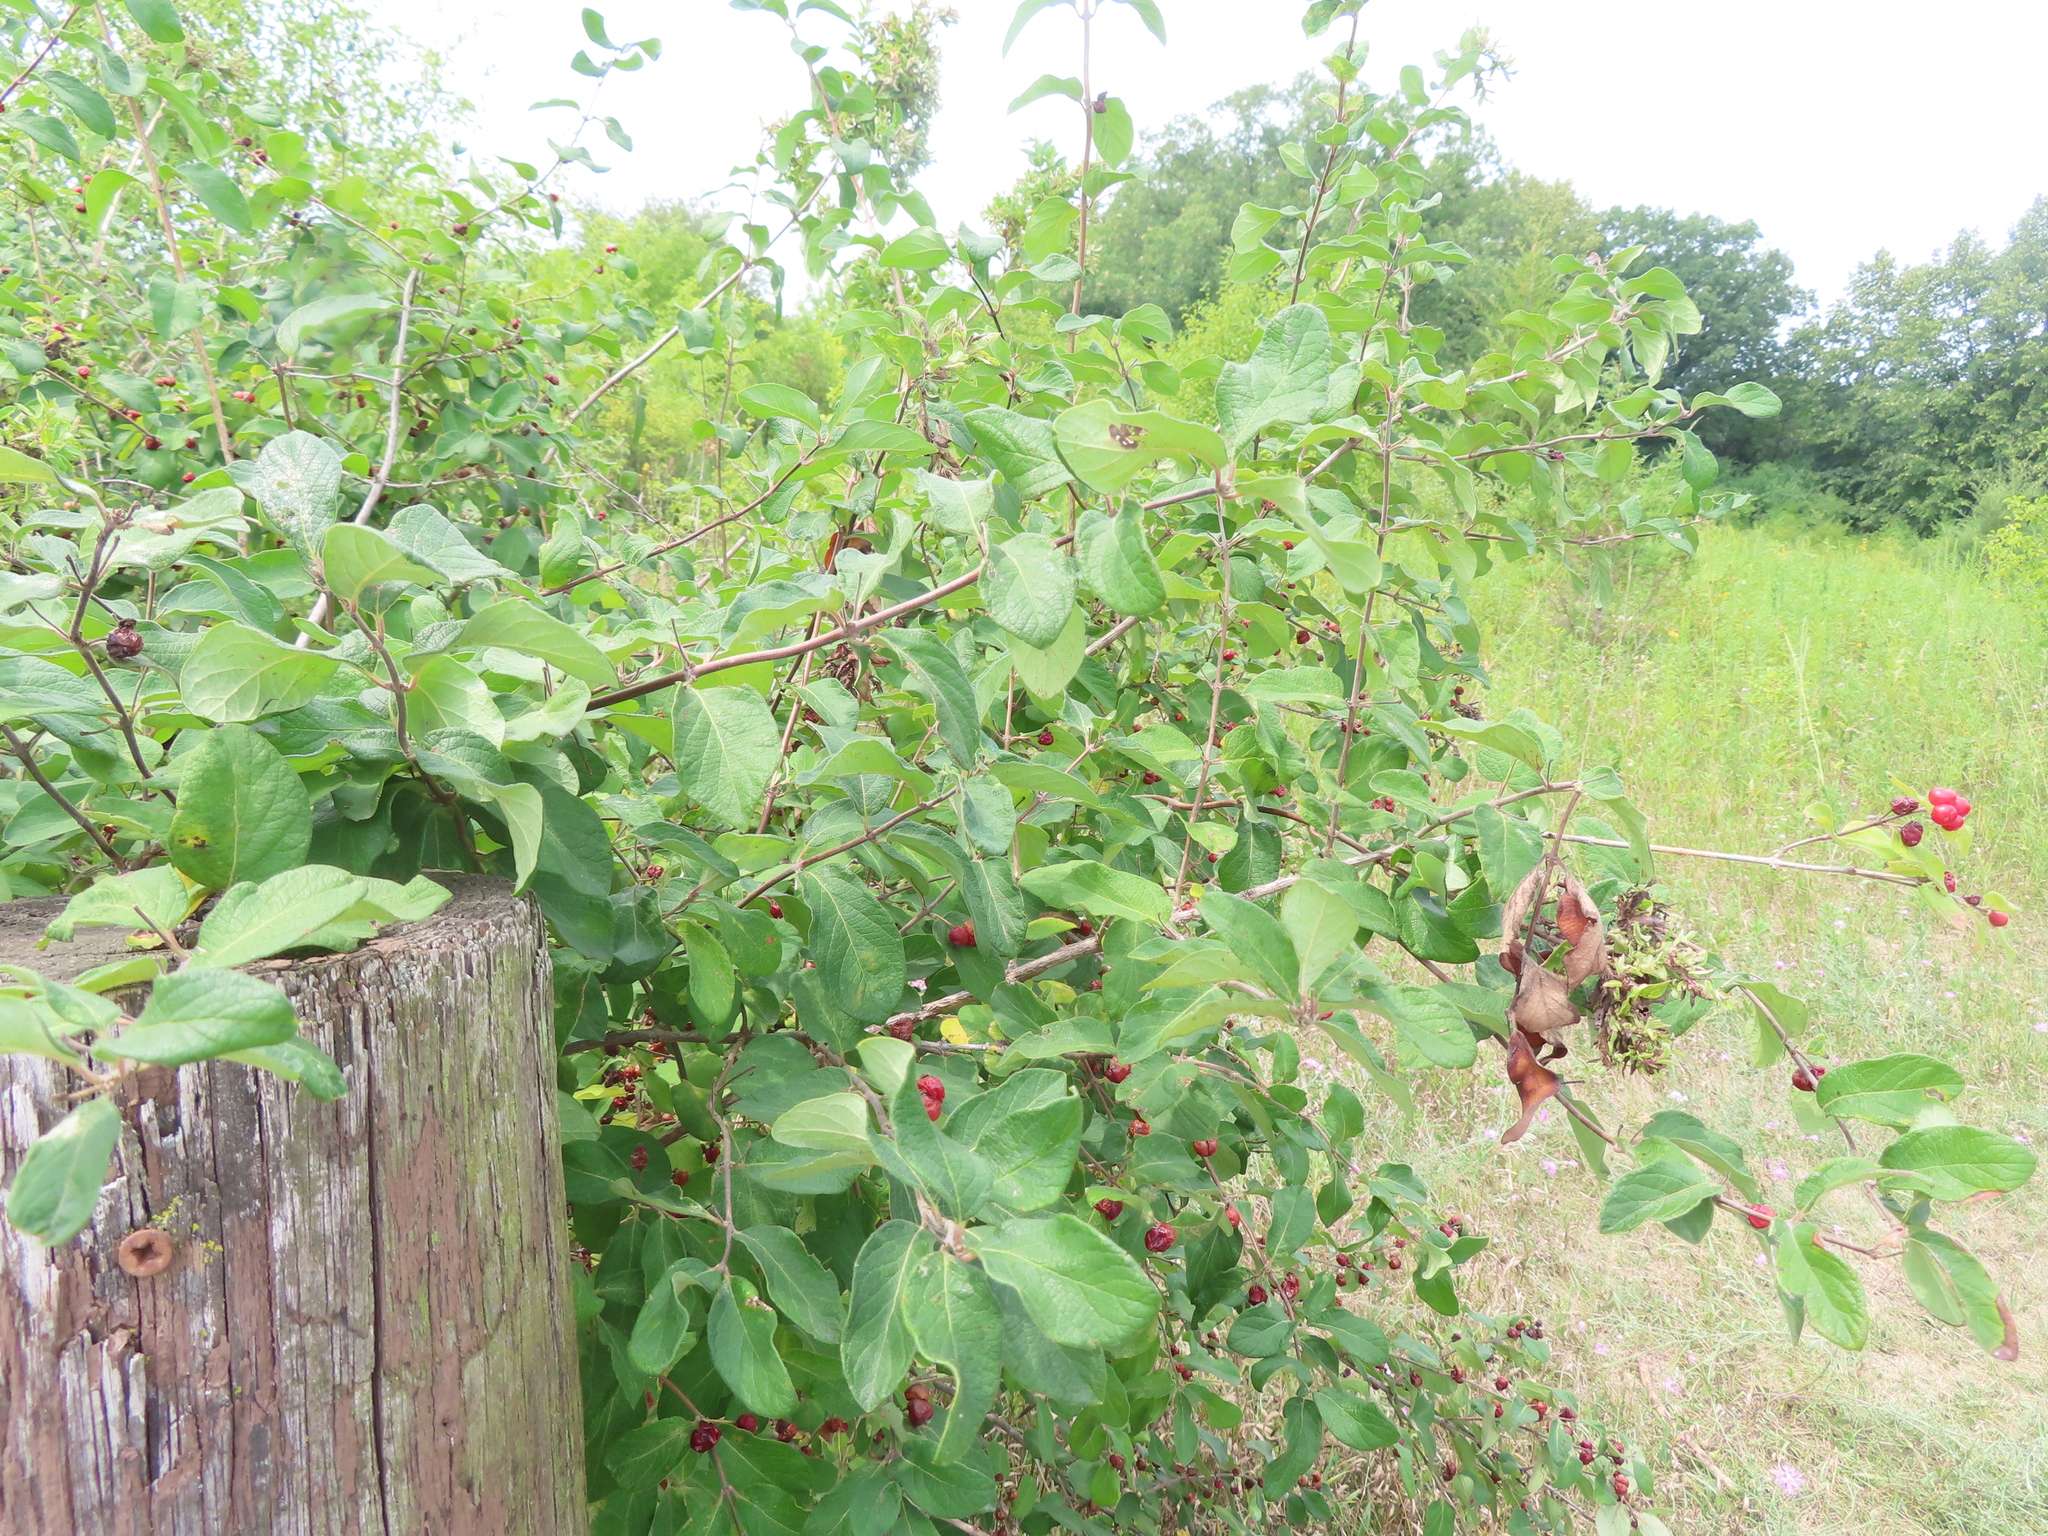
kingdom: Plantae
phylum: Tracheophyta
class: Magnoliopsida
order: Dipsacales
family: Caprifoliaceae
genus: Lonicera
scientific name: Lonicera
